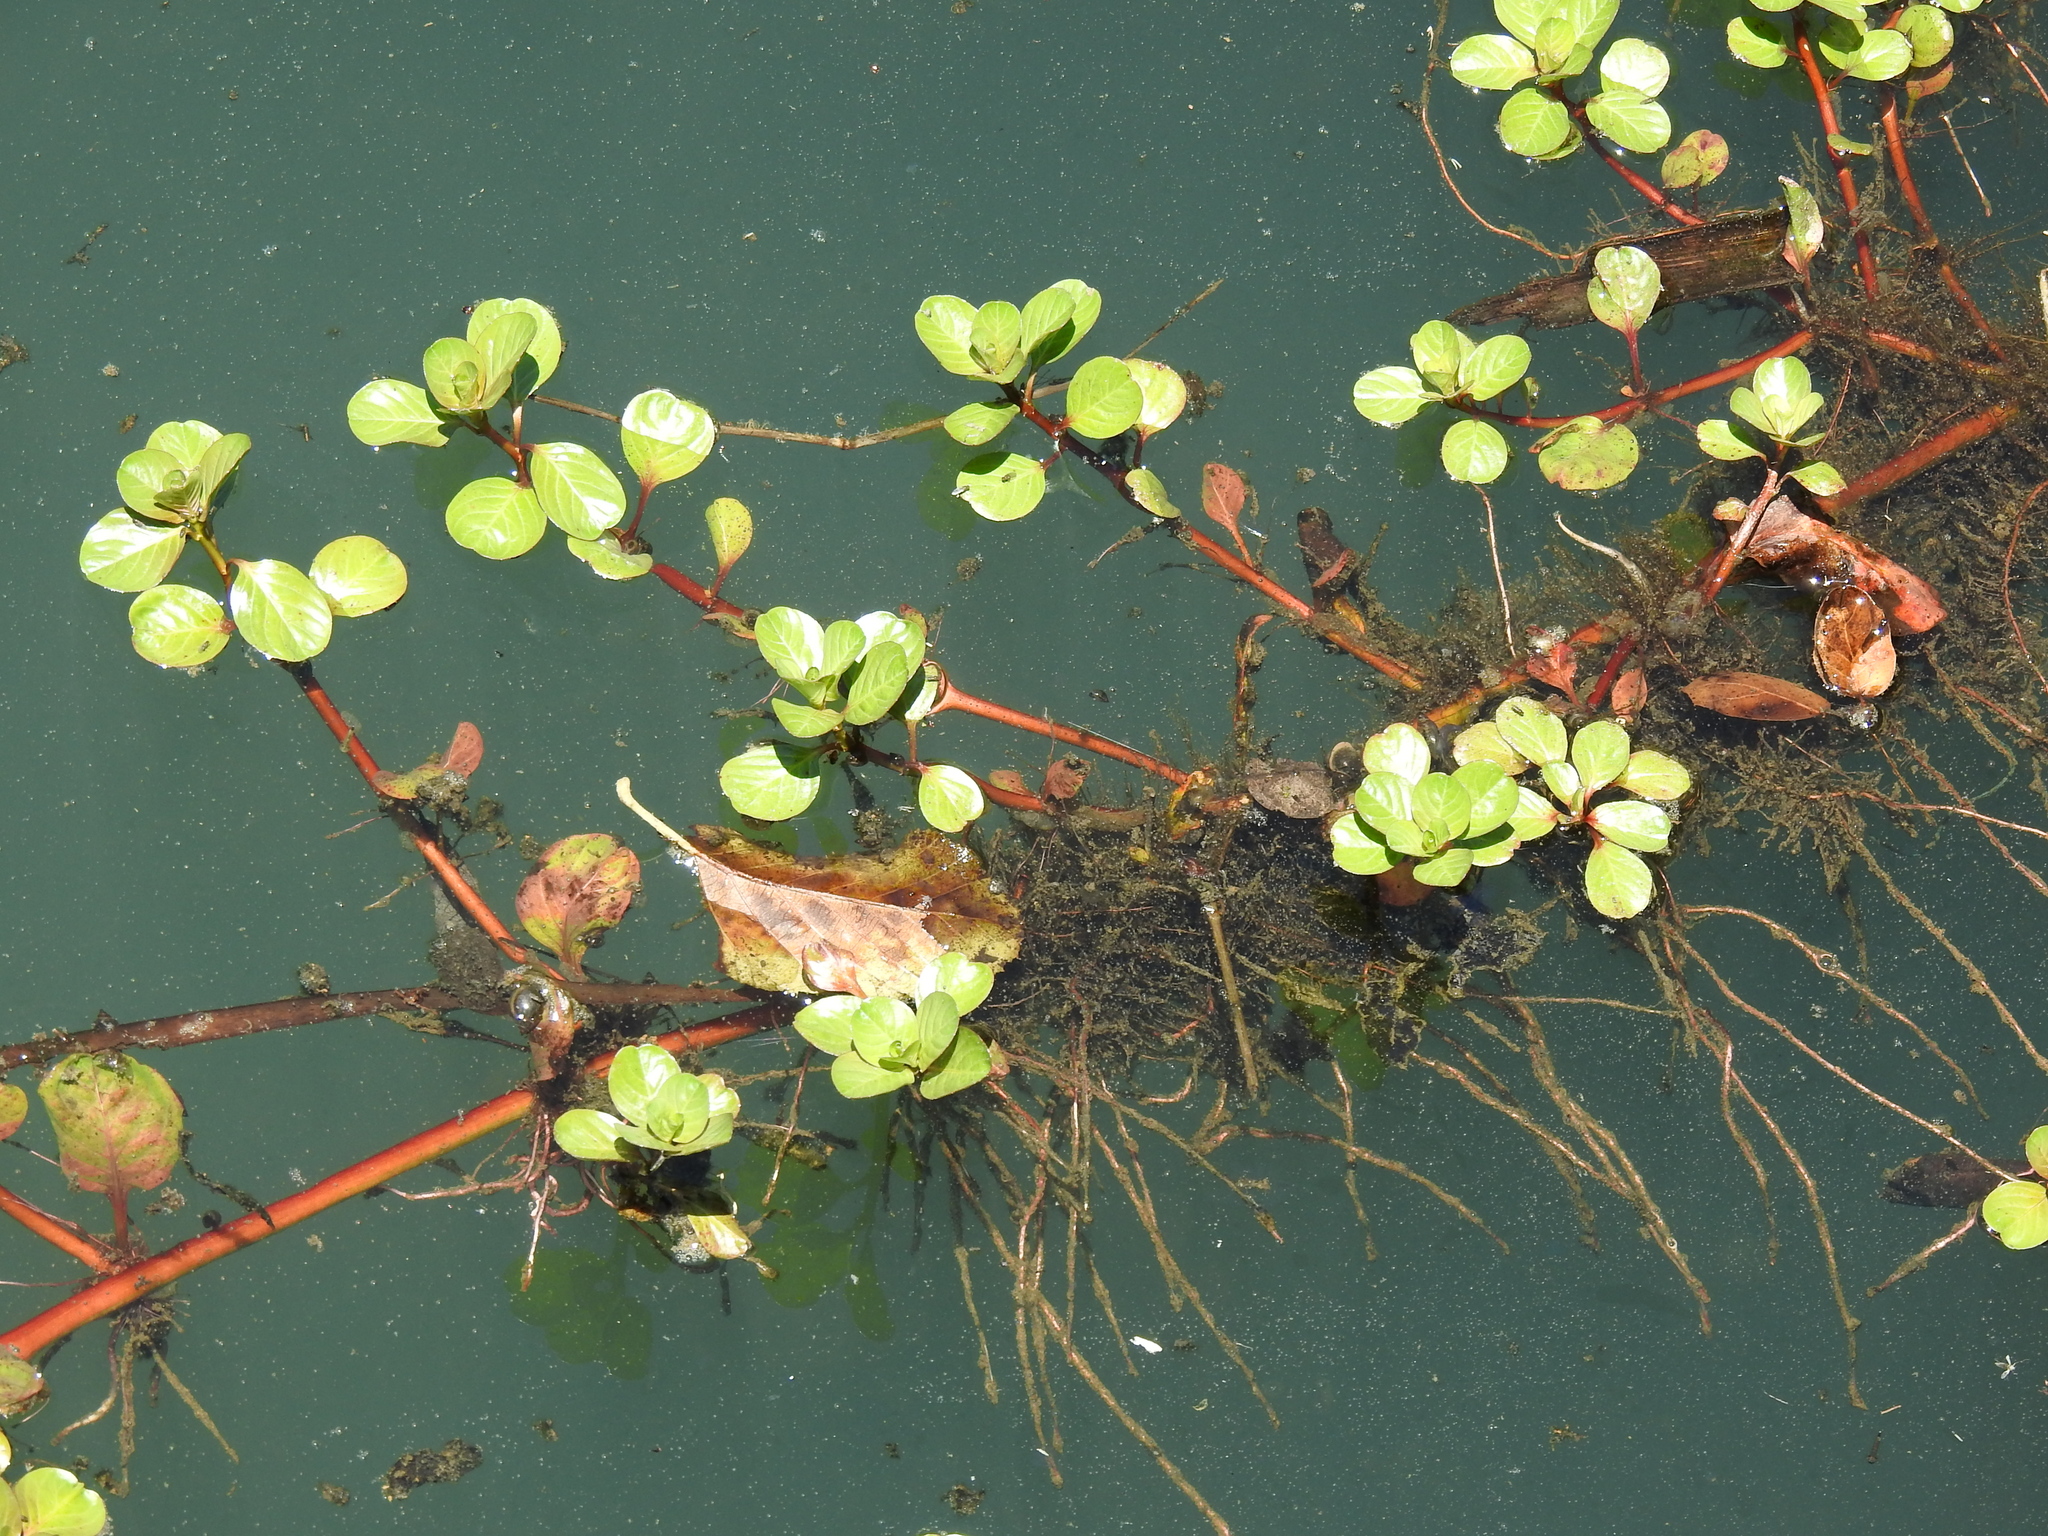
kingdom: Plantae
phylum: Tracheophyta
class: Magnoliopsida
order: Myrtales
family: Onagraceae
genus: Ludwigia
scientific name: Ludwigia peploides
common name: Floating primrose-willow
